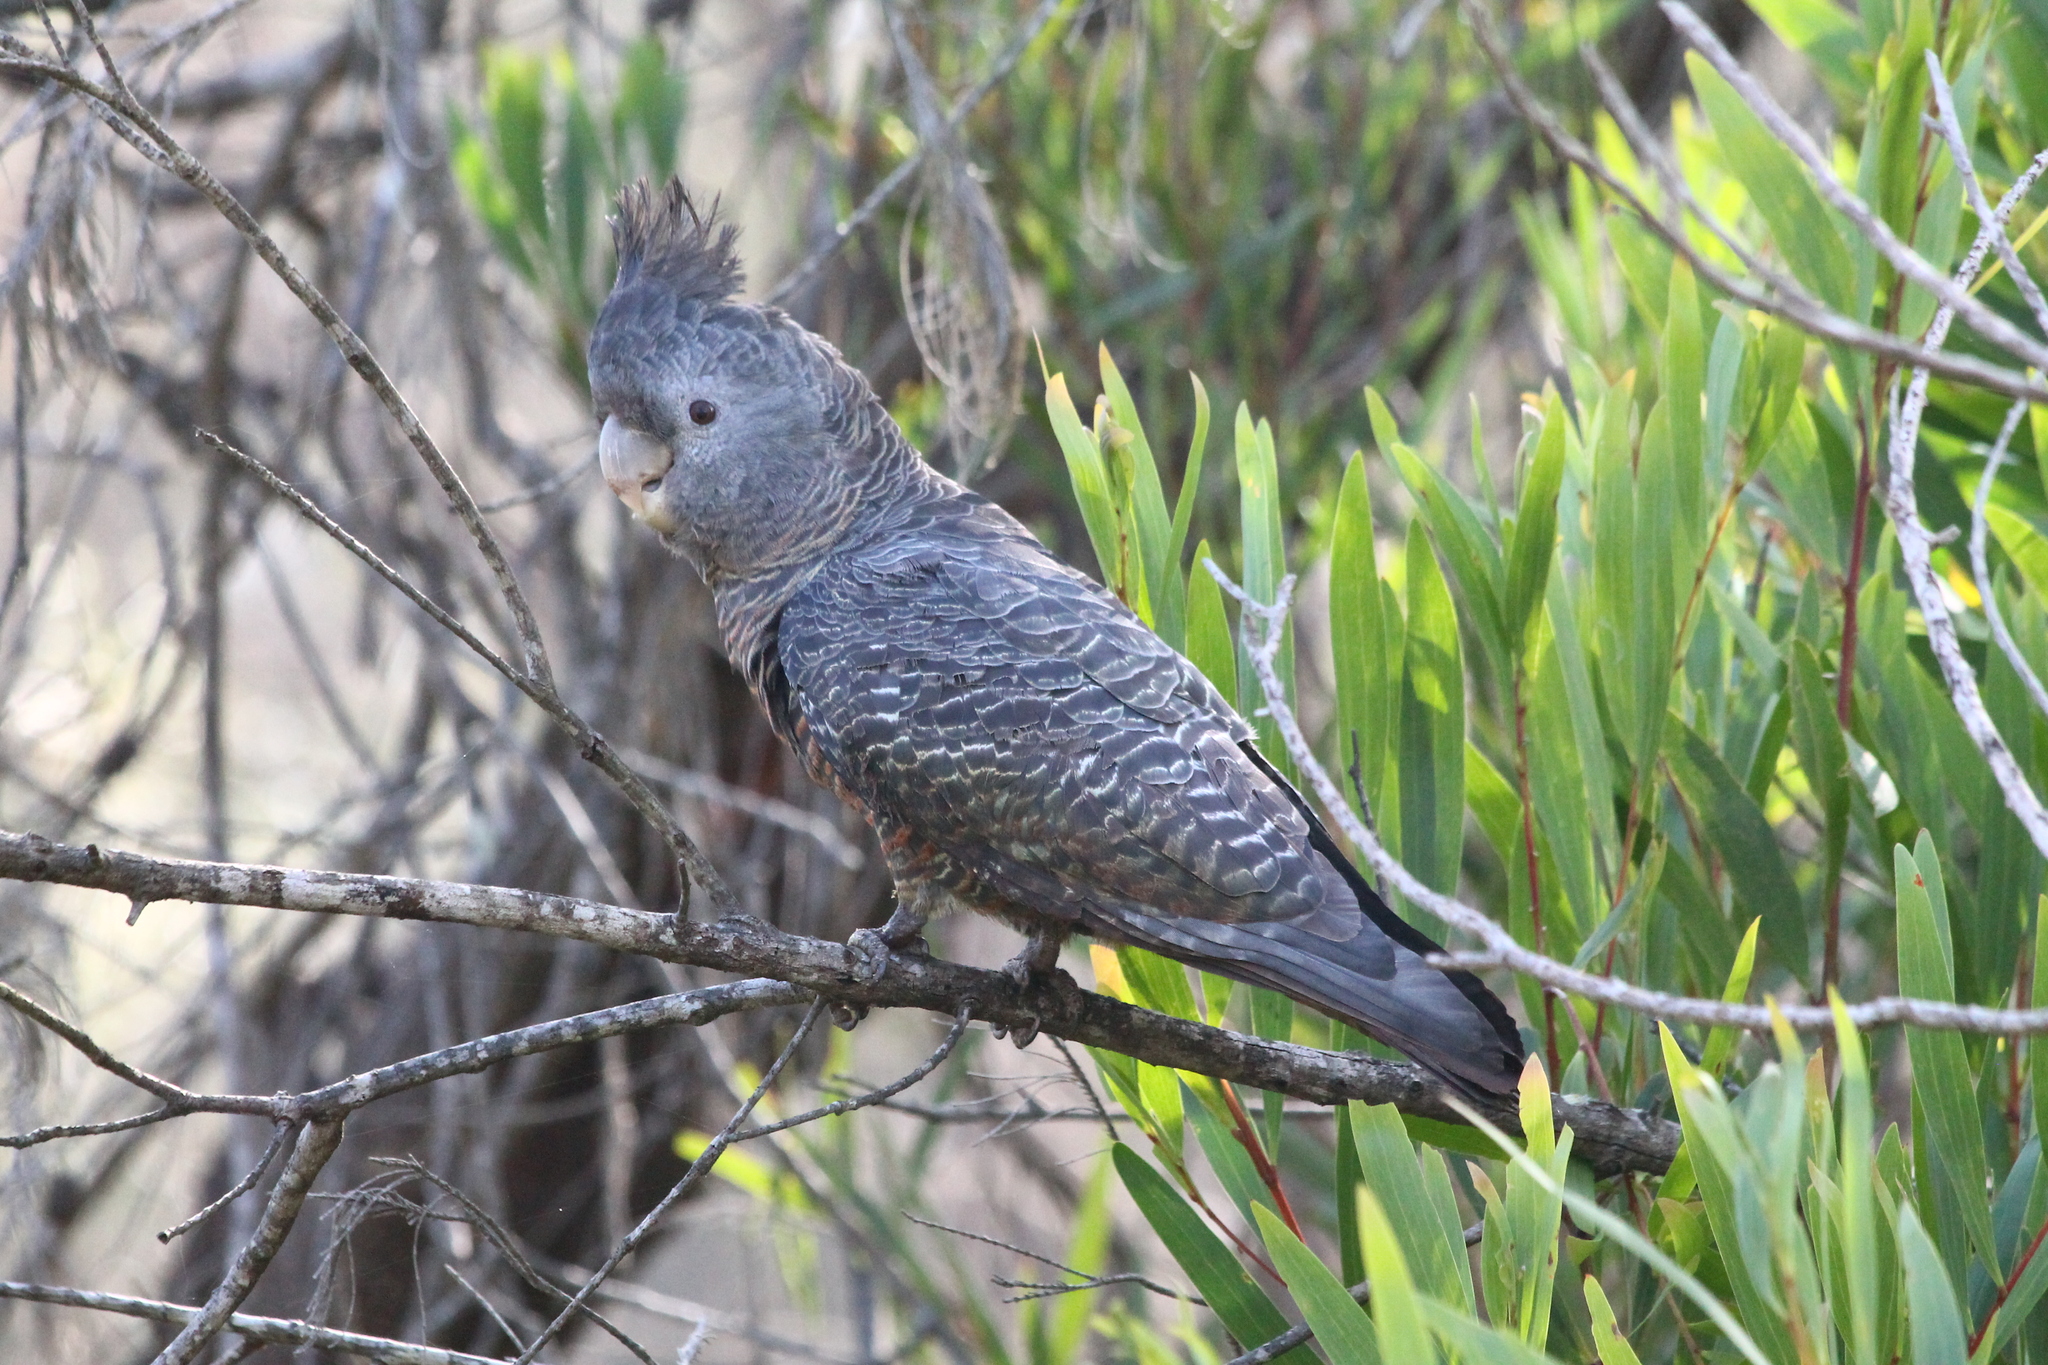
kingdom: Animalia
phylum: Chordata
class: Aves
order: Psittaciformes
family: Psittacidae
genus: Callocephalon
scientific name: Callocephalon fimbriatum
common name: Gang-gang cockatoo
